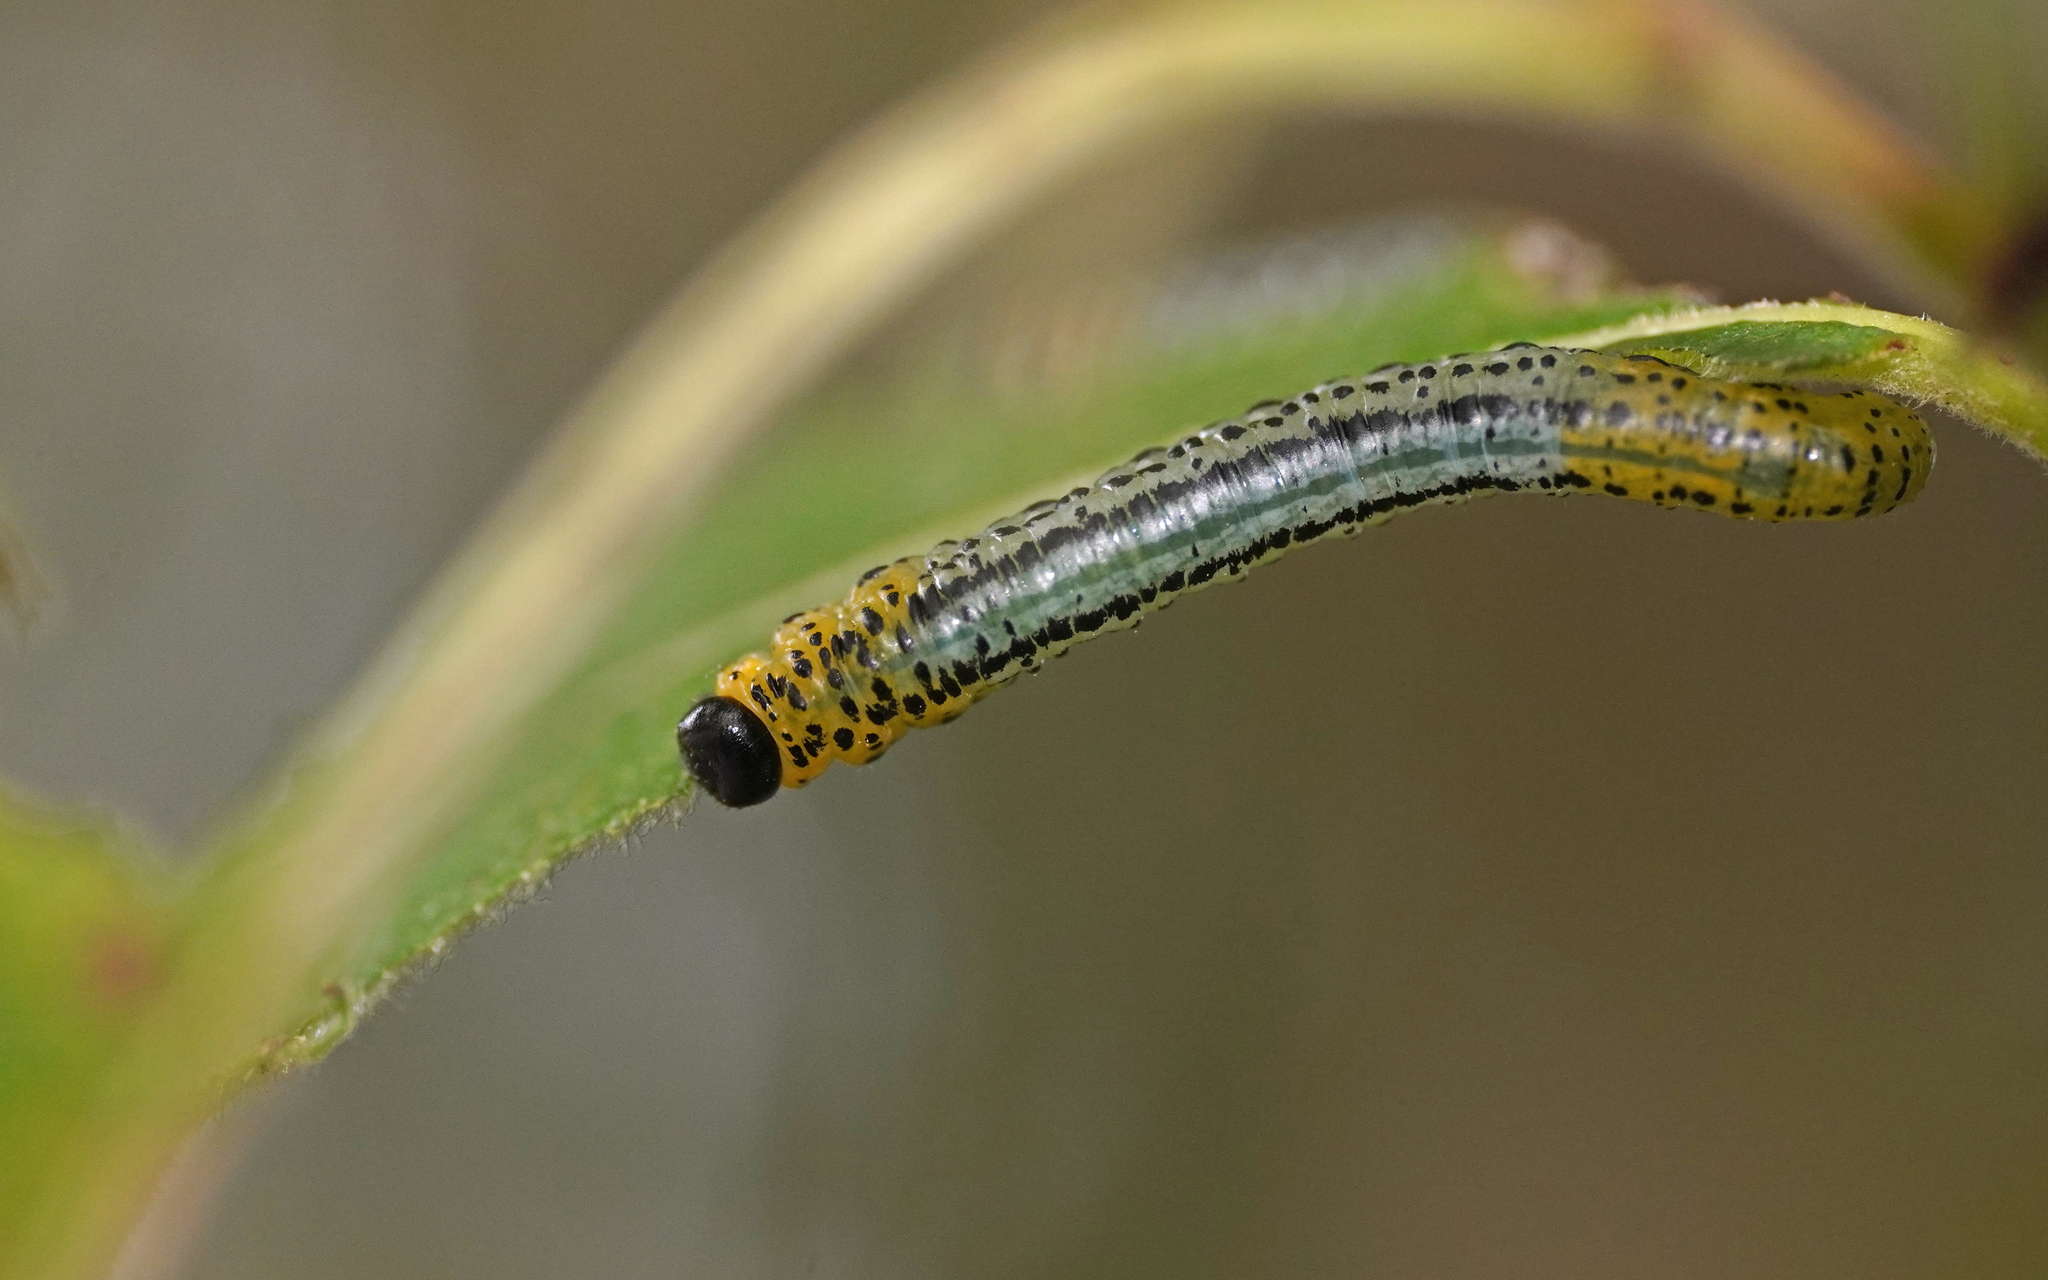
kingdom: Animalia
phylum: Arthropoda
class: Insecta
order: Hymenoptera
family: Tenthredinidae
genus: Nematus
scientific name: Nematus miliaris
